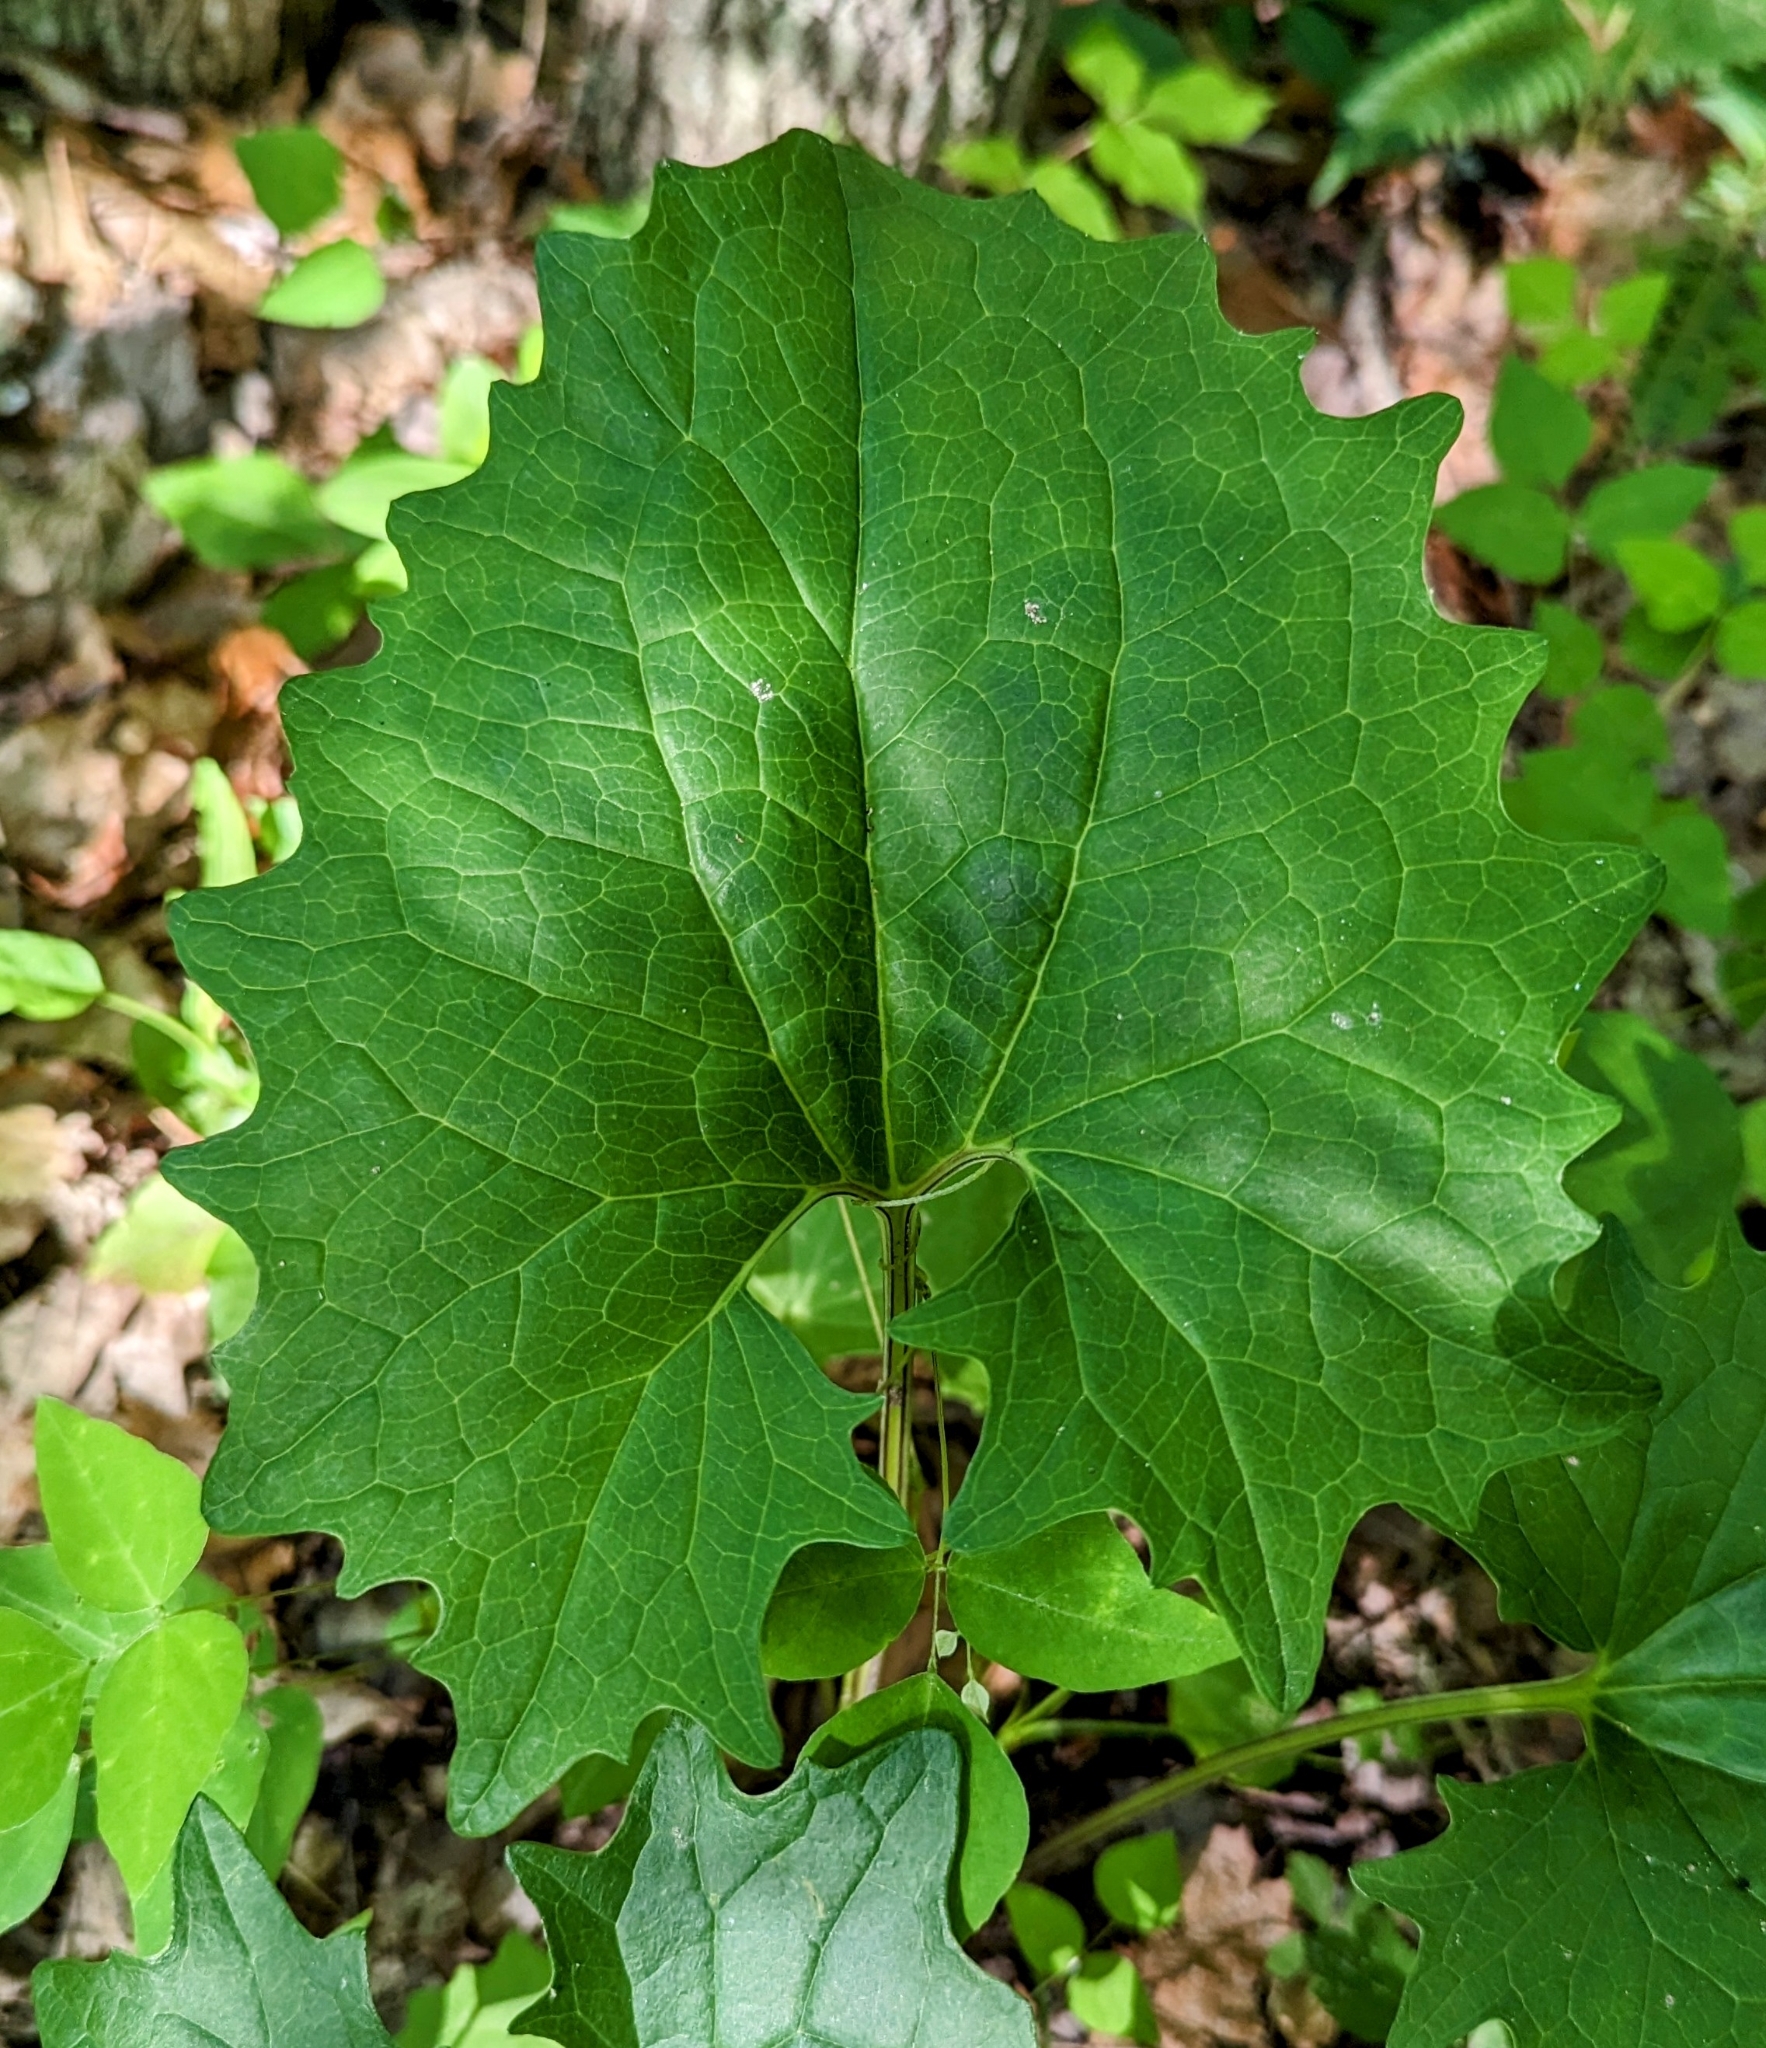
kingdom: Plantae
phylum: Tracheophyta
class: Magnoliopsida
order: Asterales
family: Asteraceae
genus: Arnoglossum
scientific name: Arnoglossum atriplicifolium
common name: Pale indian-plantain
